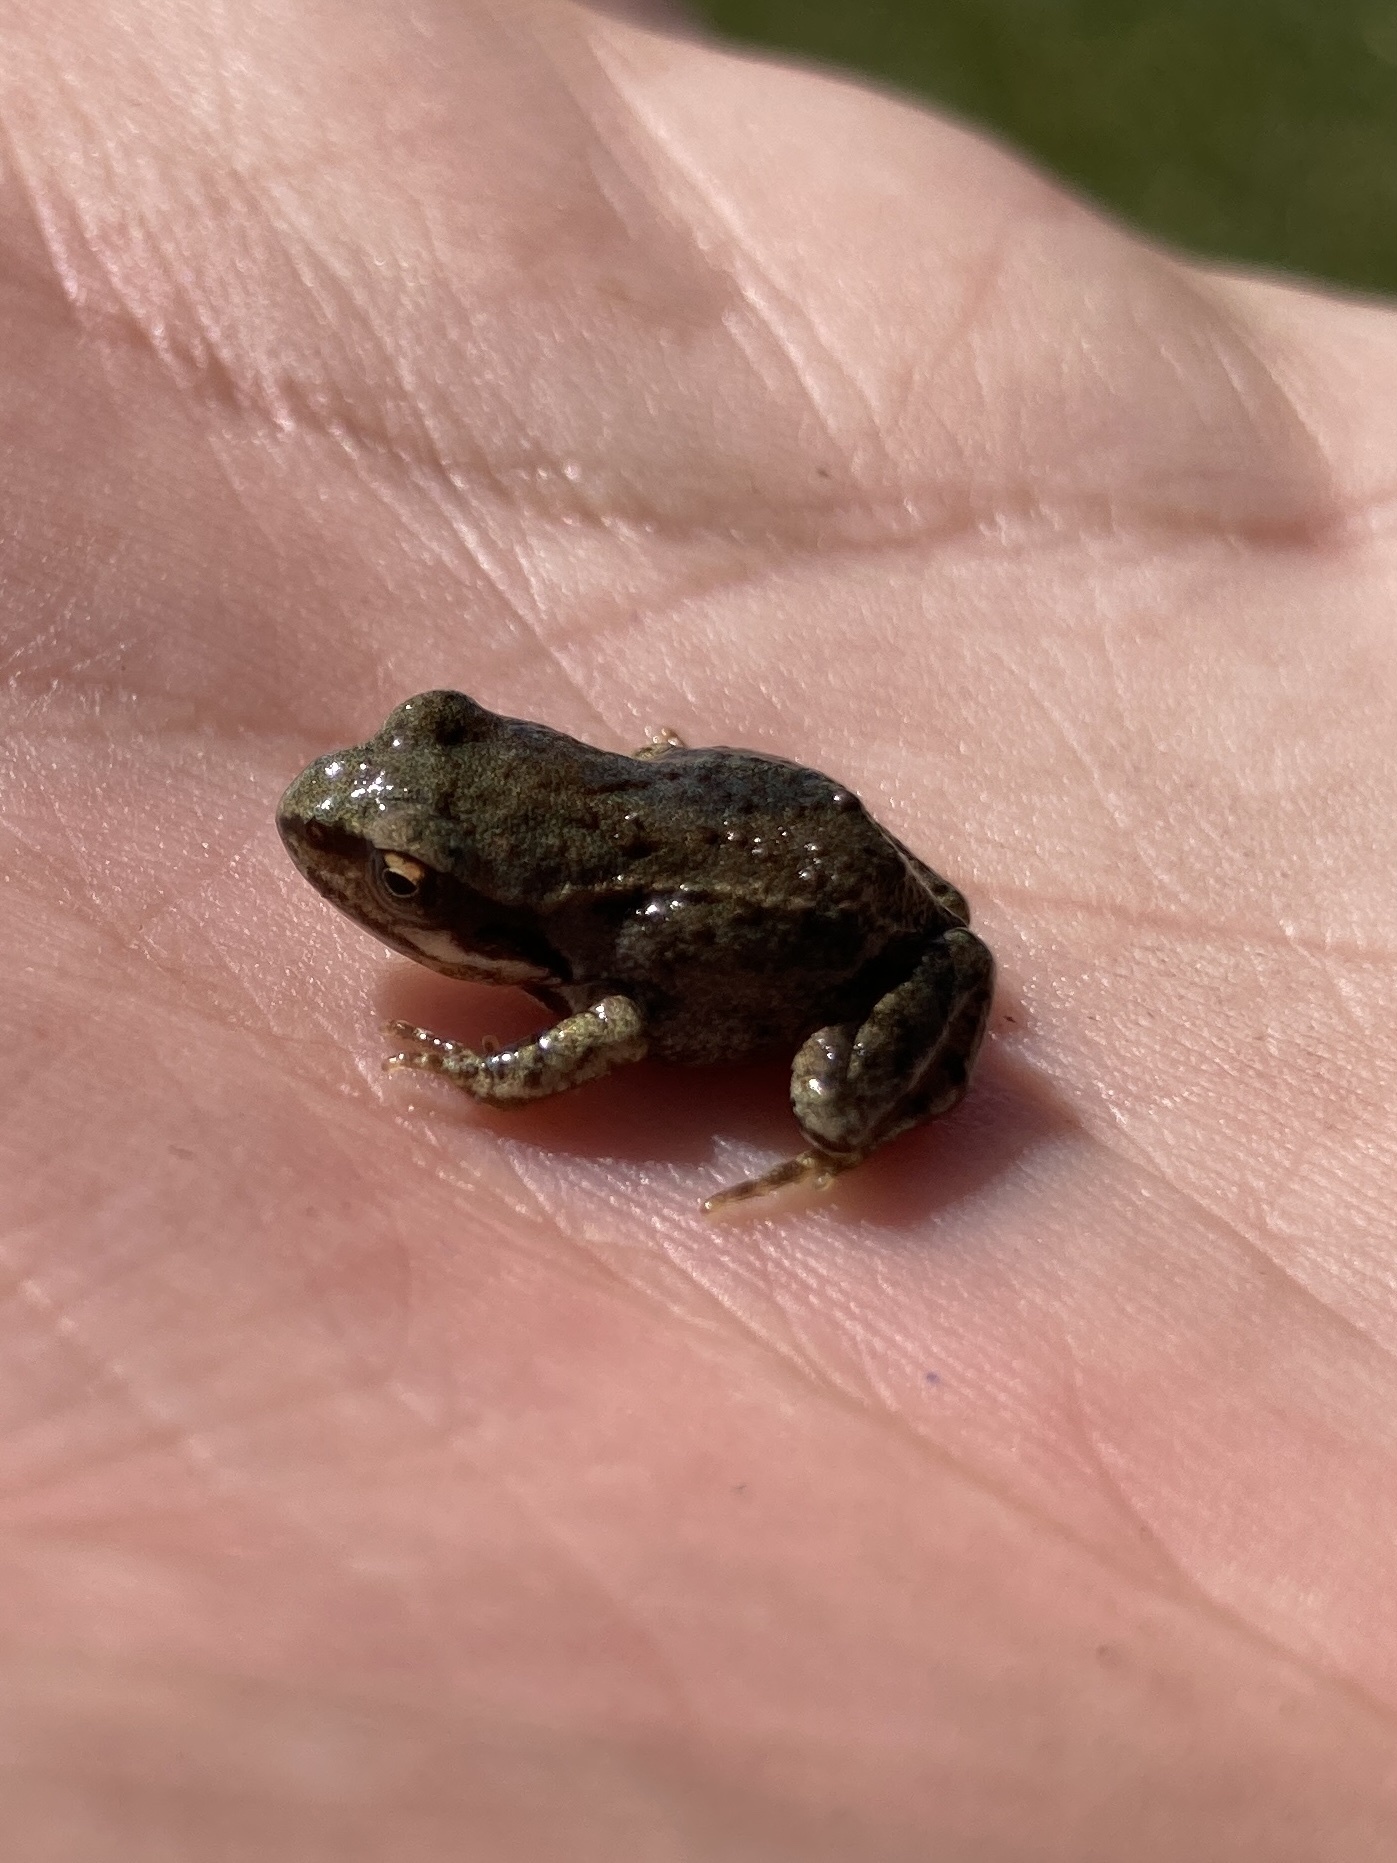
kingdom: Animalia
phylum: Chordata
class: Amphibia
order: Anura
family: Ranidae
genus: Rana
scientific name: Rana temporaria
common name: Common frog
